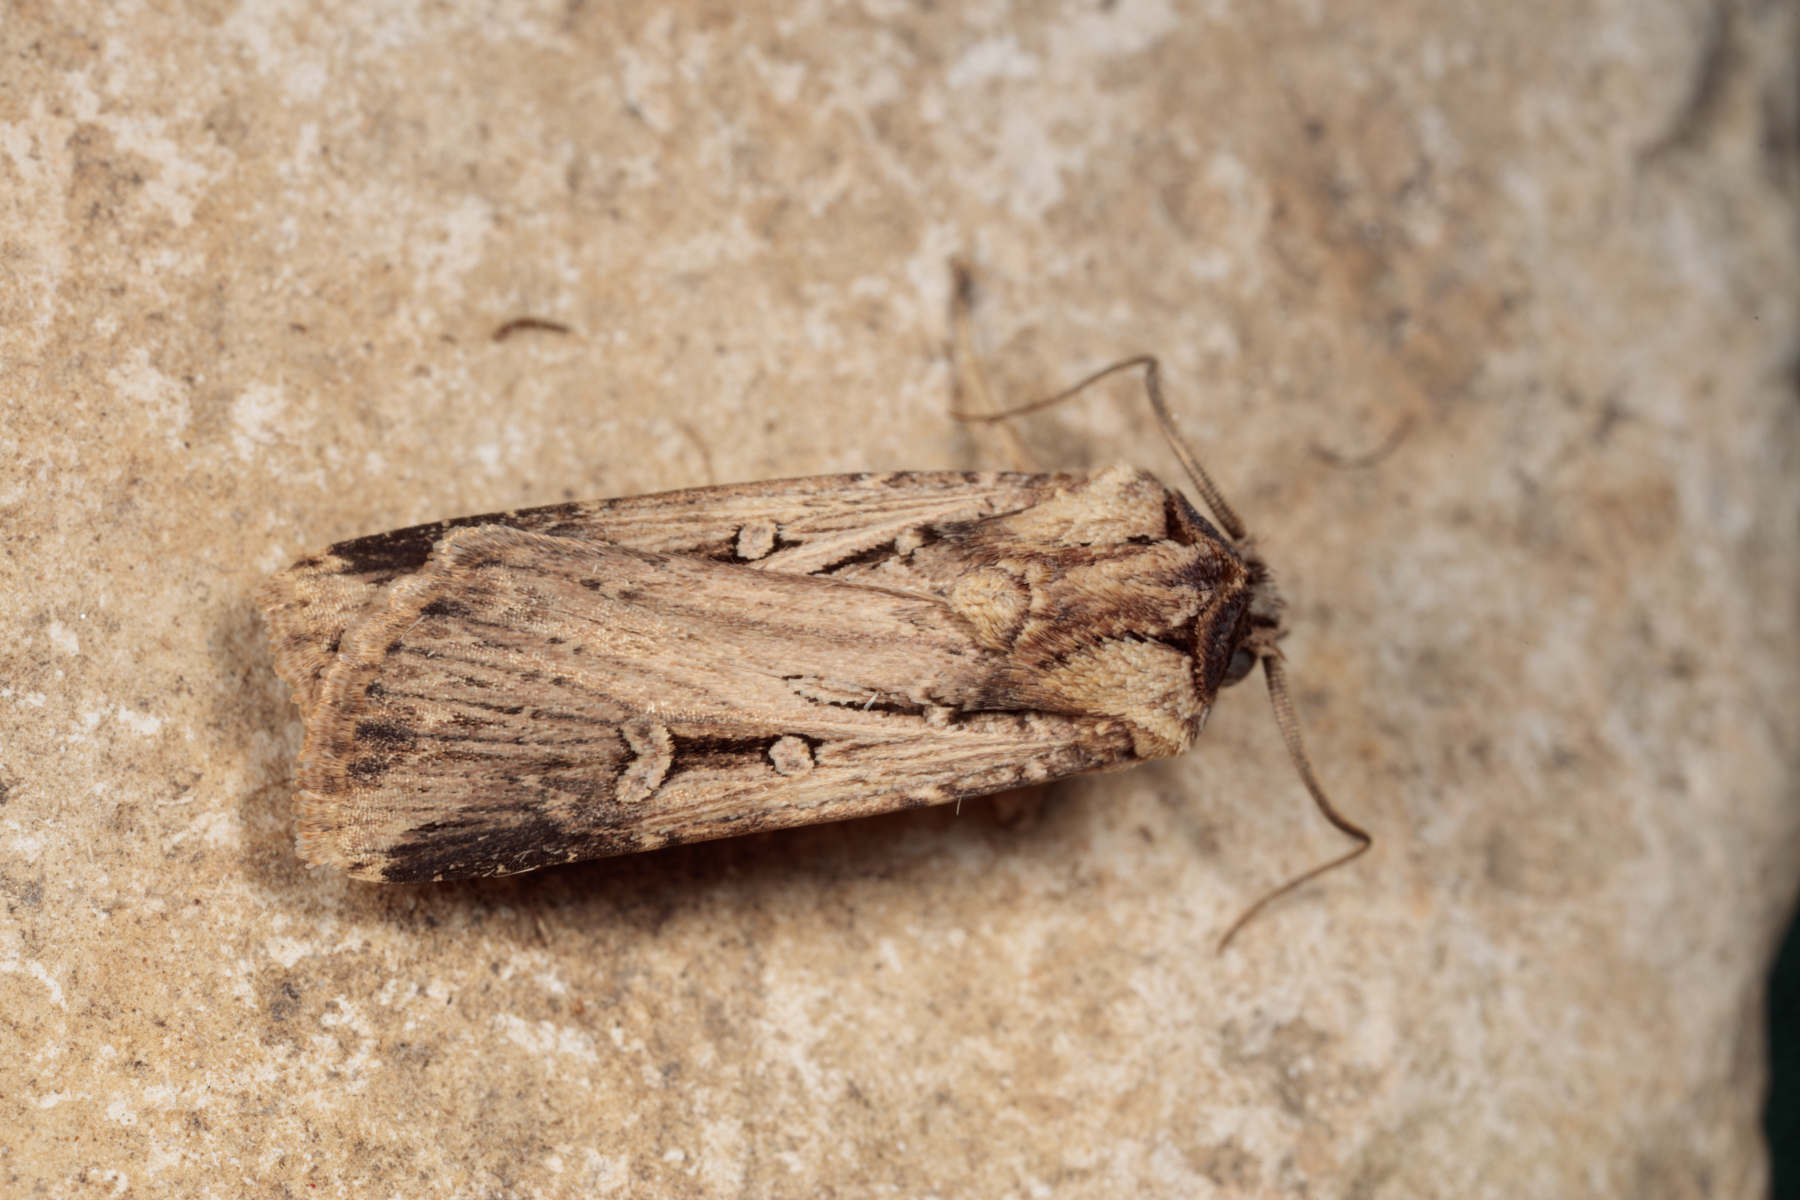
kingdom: Animalia
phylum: Arthropoda
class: Insecta
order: Lepidoptera
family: Noctuidae
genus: Feltia
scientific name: Feltia subterranea
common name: Granulate cutworm
